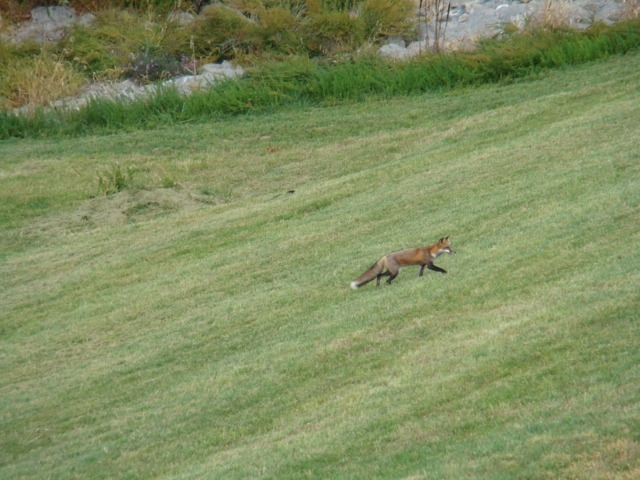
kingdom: Animalia
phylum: Chordata
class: Mammalia
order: Carnivora
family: Canidae
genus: Vulpes
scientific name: Vulpes vulpes
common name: Red fox
